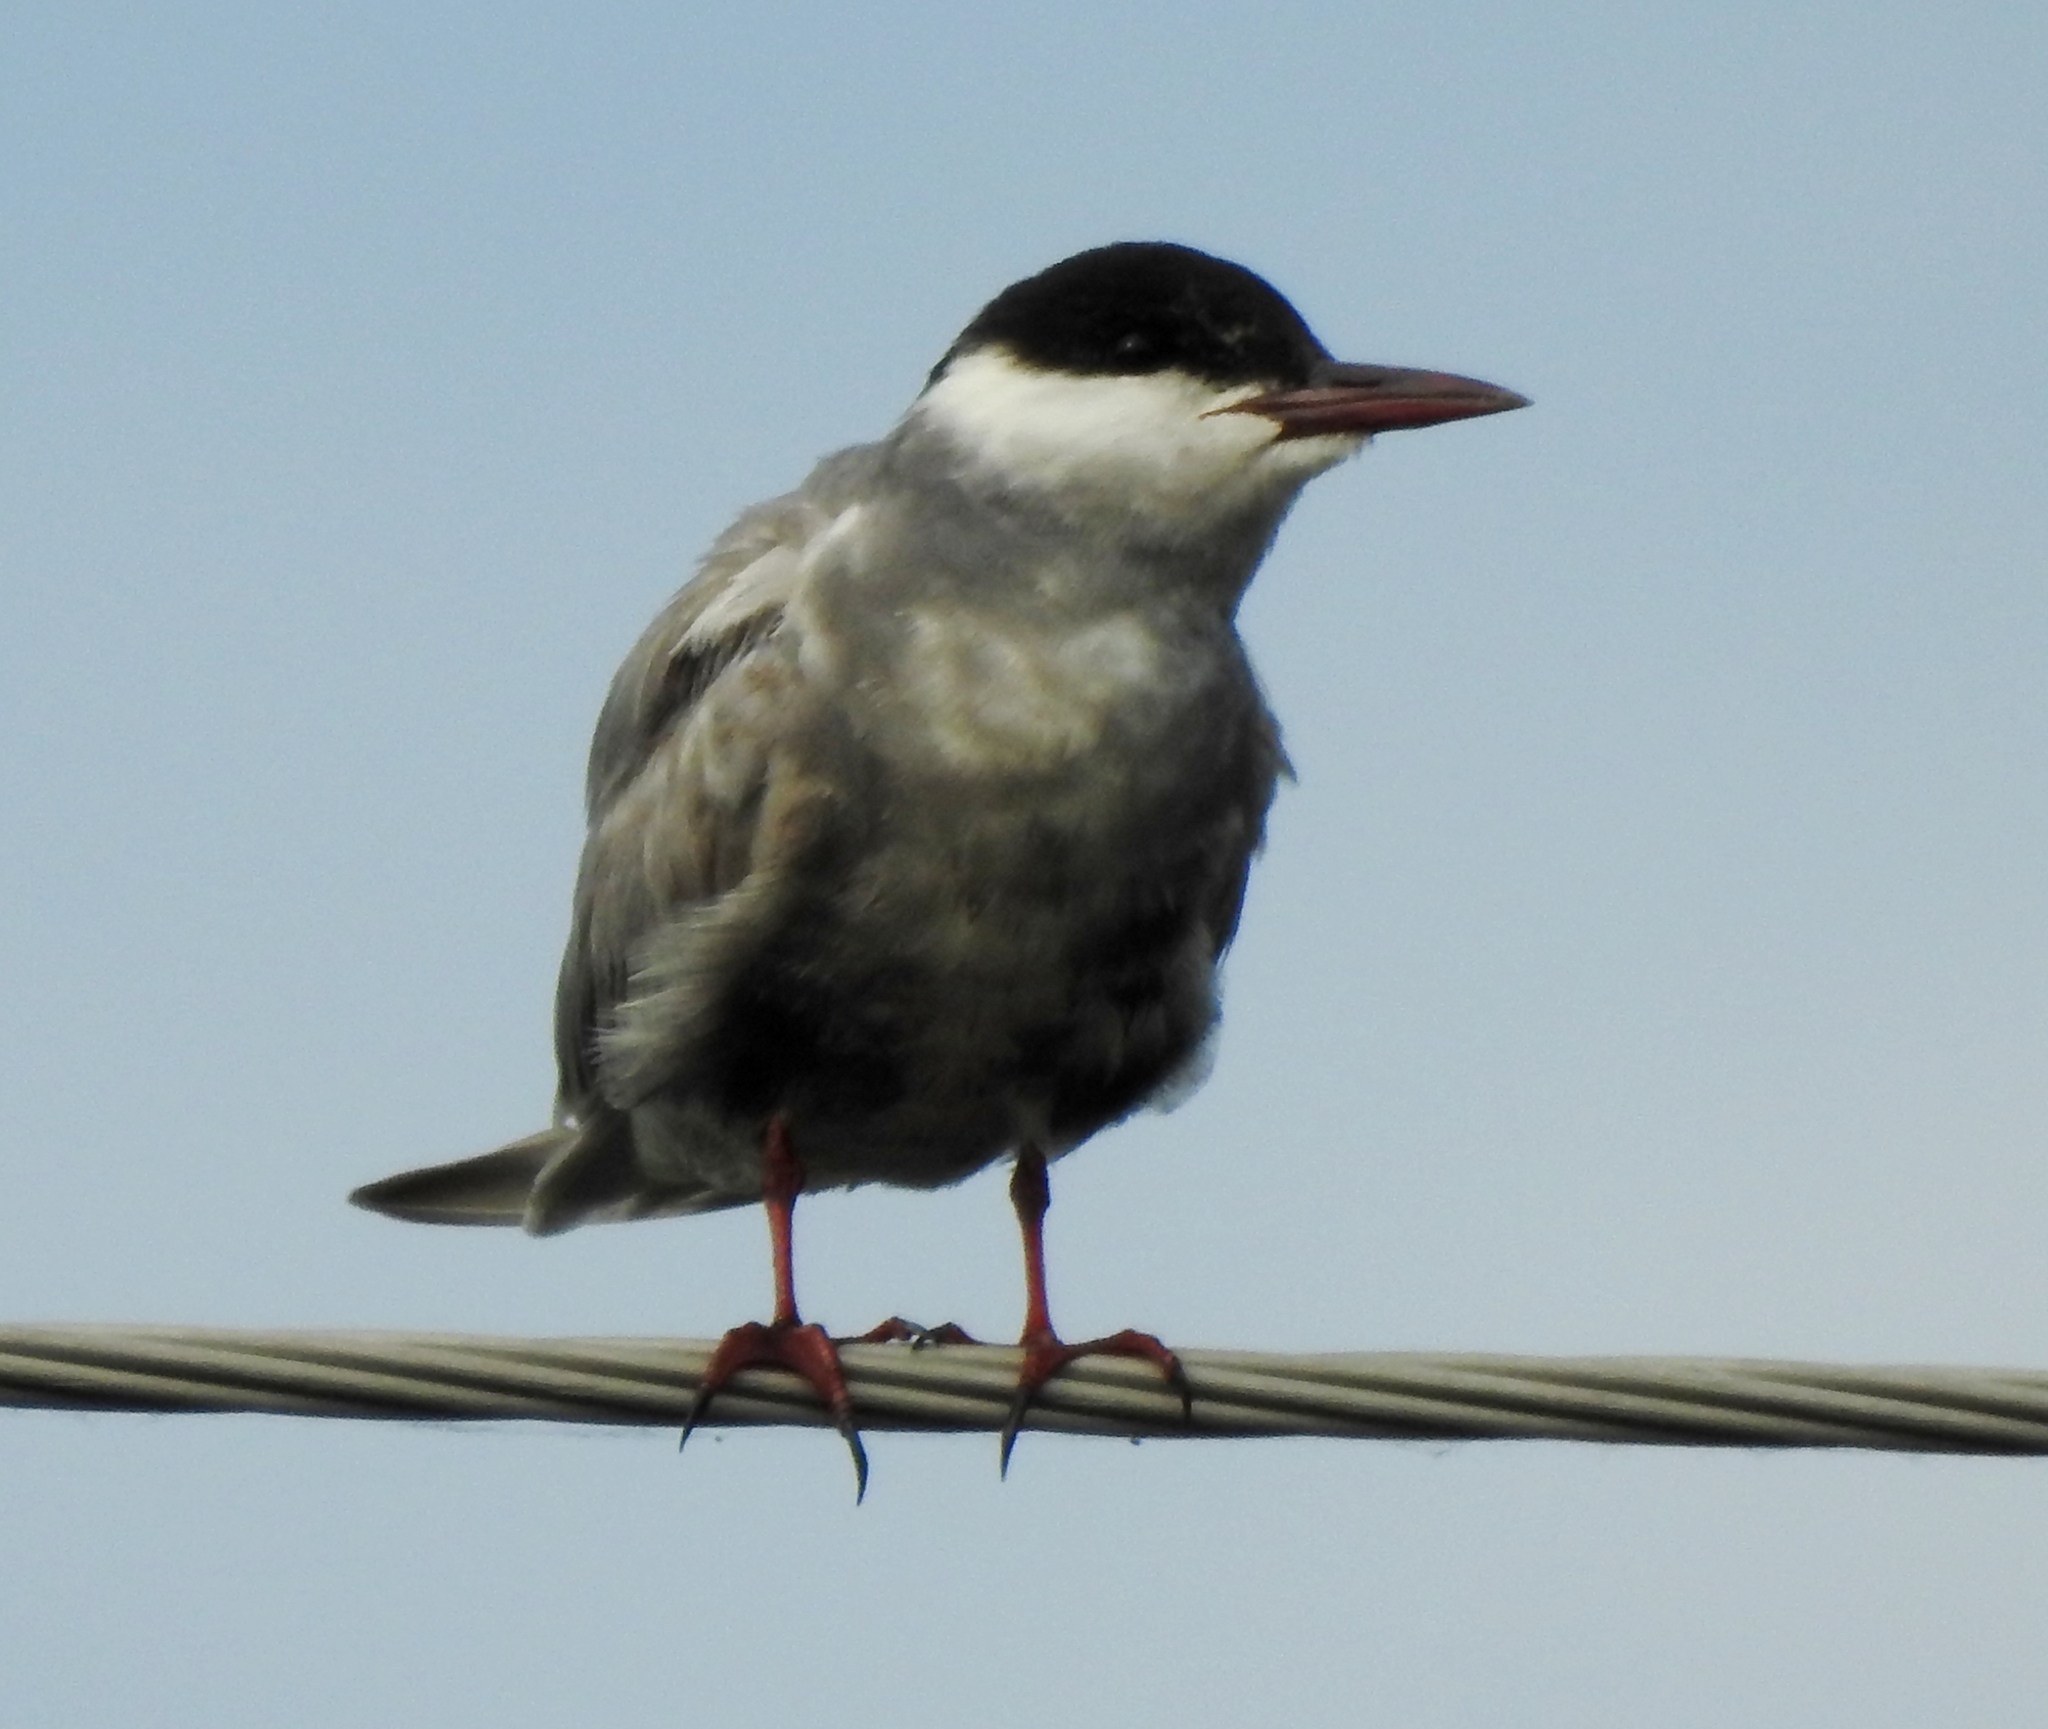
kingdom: Animalia
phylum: Chordata
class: Aves
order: Charadriiformes
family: Laridae
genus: Chlidonias
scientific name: Chlidonias hybrida
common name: Whiskered tern
